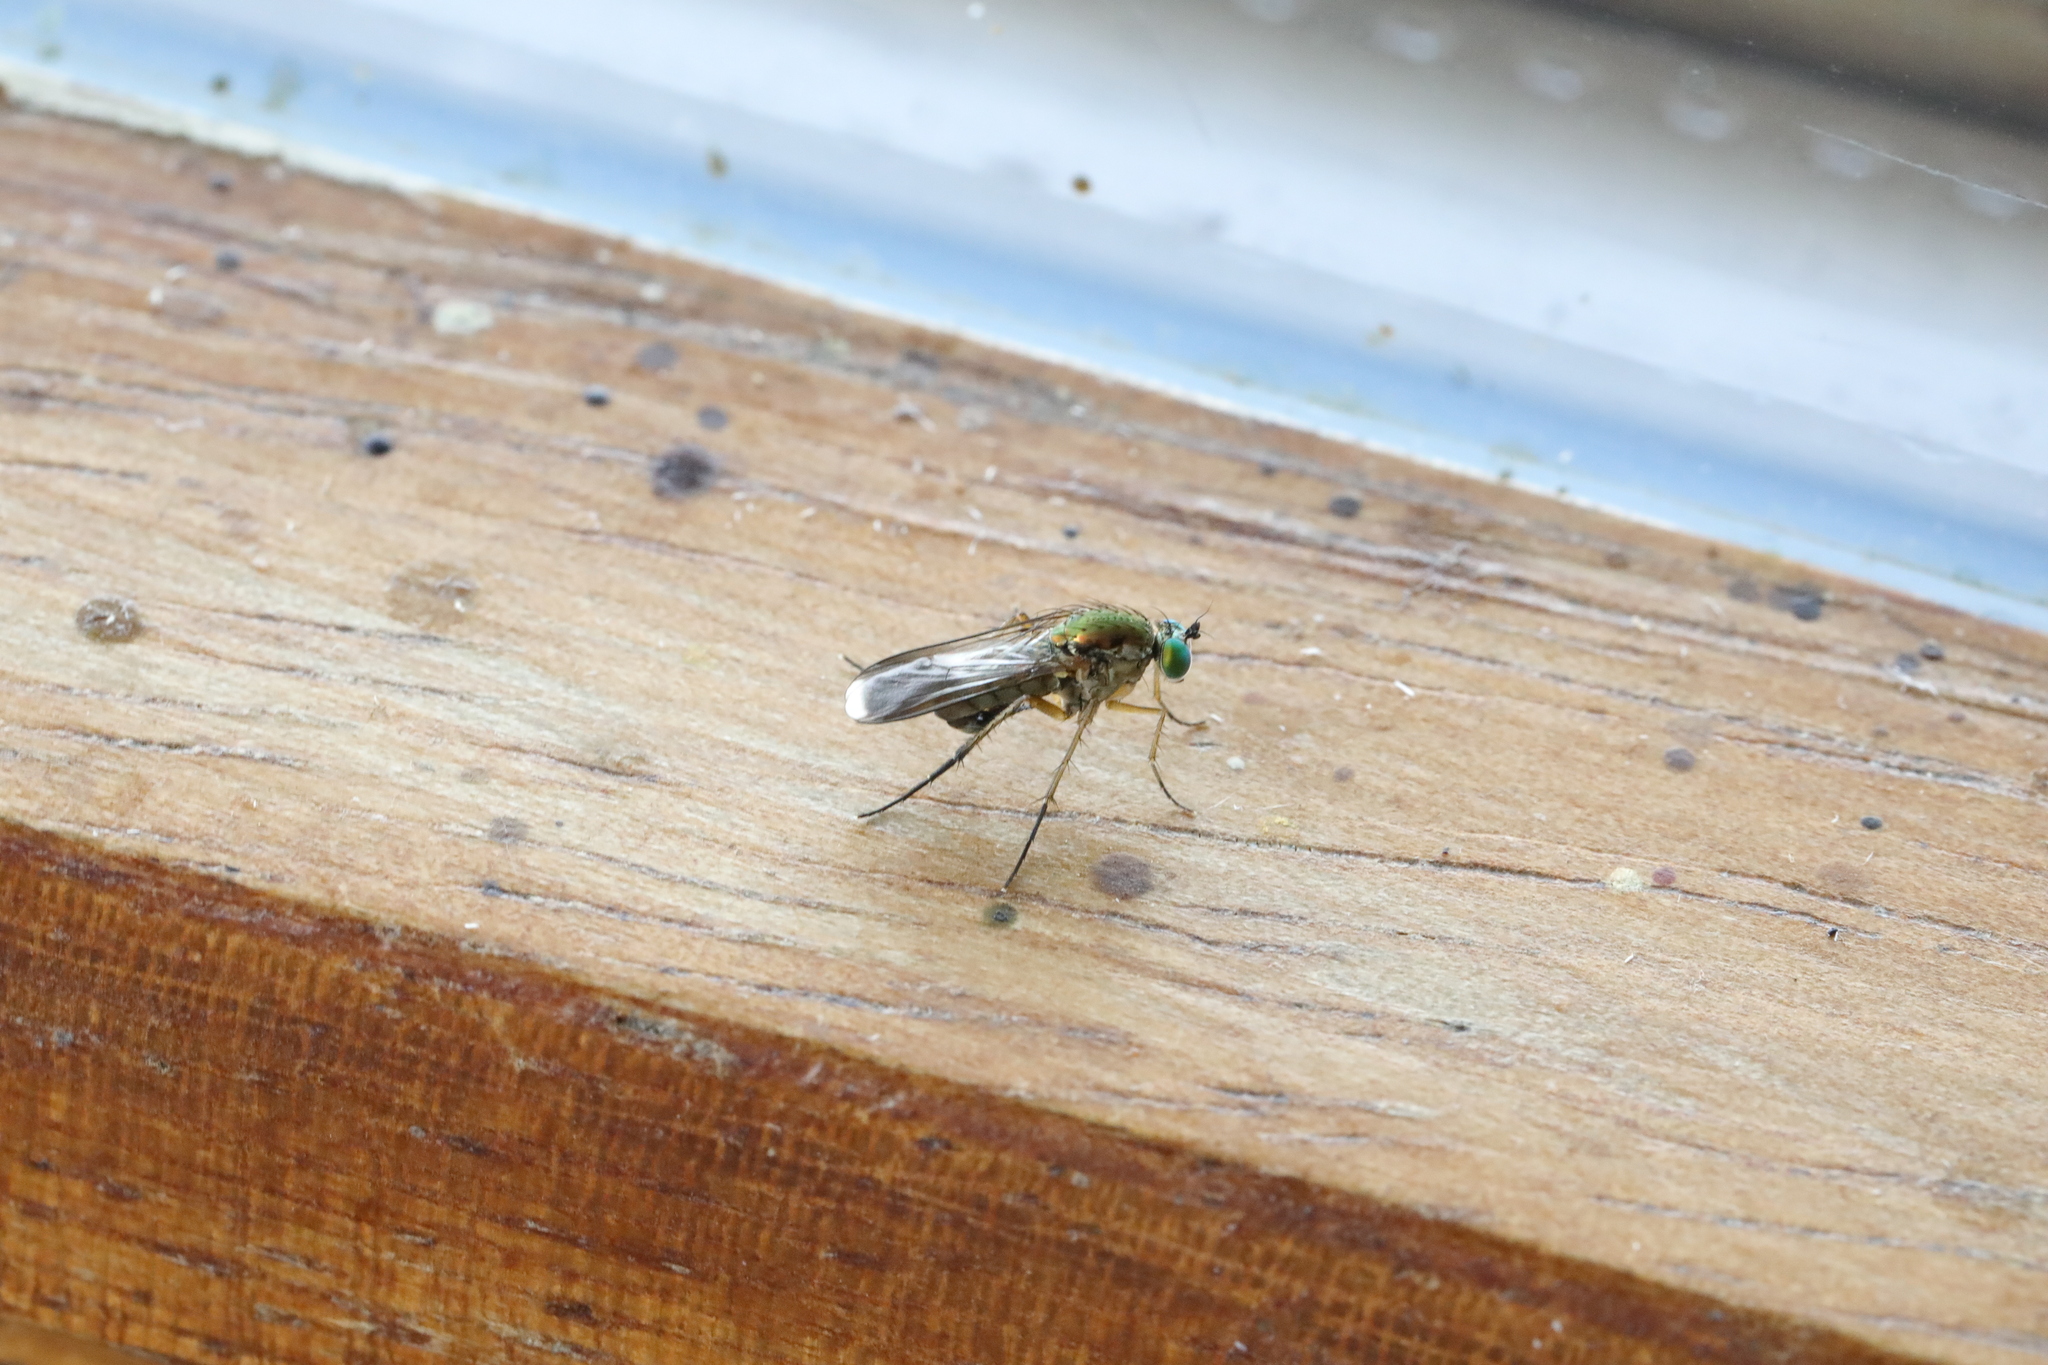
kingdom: Animalia
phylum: Arthropoda
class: Insecta
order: Diptera
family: Dolichopodidae
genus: Poecilobothrus
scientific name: Poecilobothrus nobilitatus
